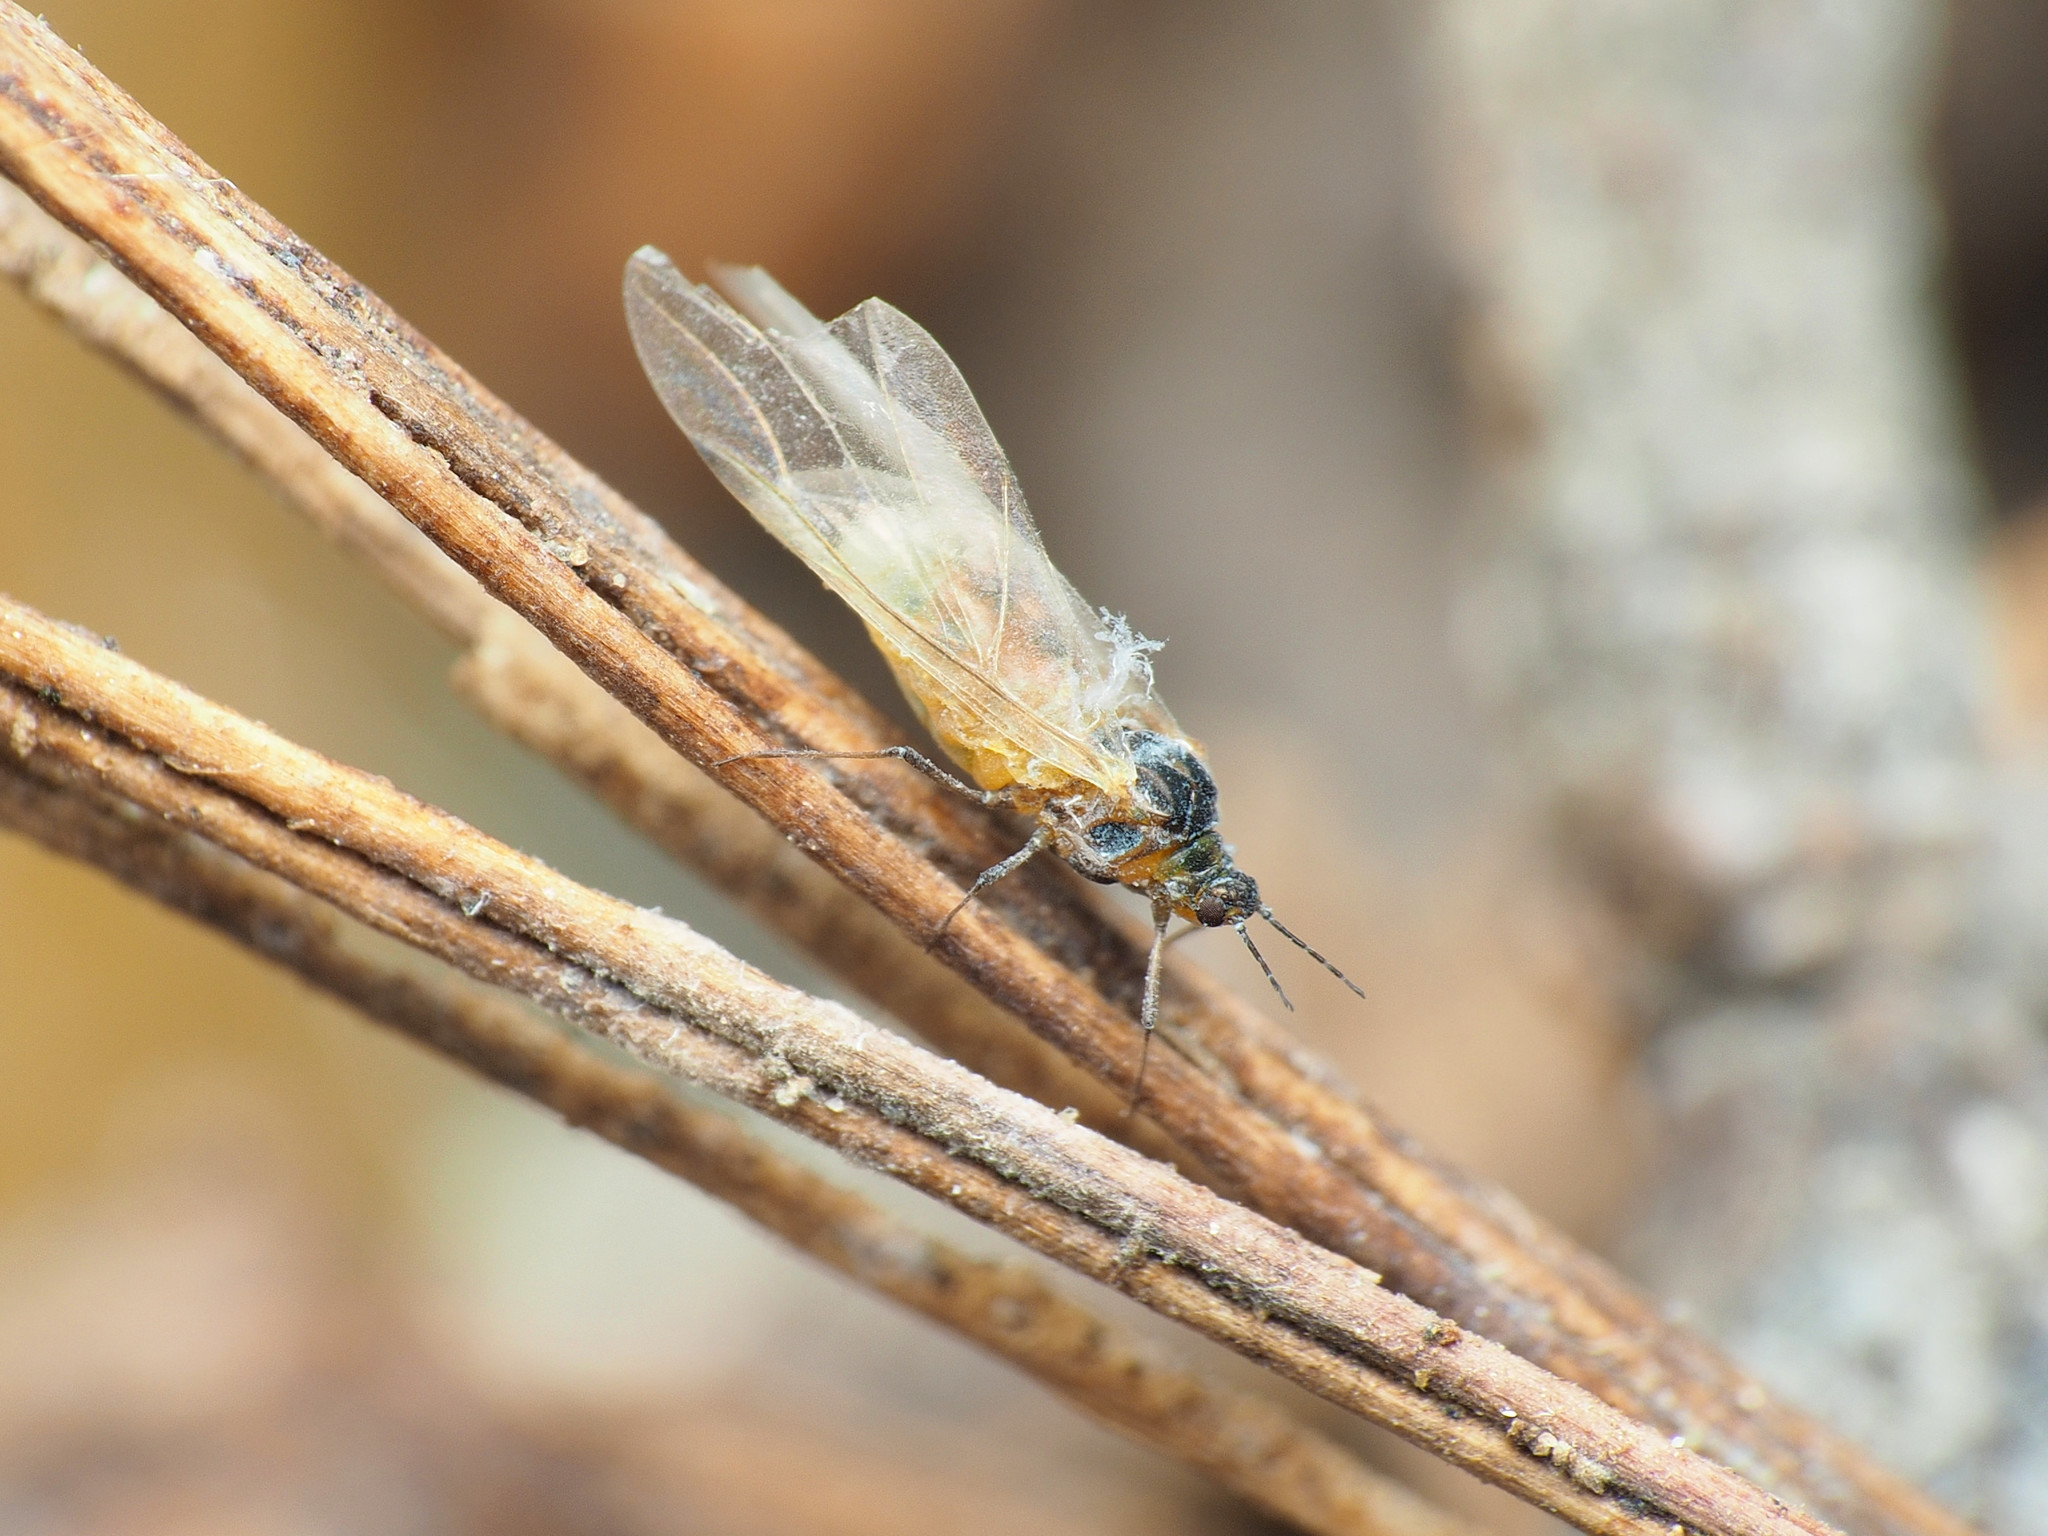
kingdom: Animalia
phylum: Arthropoda
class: Insecta
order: Hemiptera
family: Aphididae
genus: Grylloprociphilus
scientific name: Grylloprociphilus imbricator
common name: Beech blight aphid
